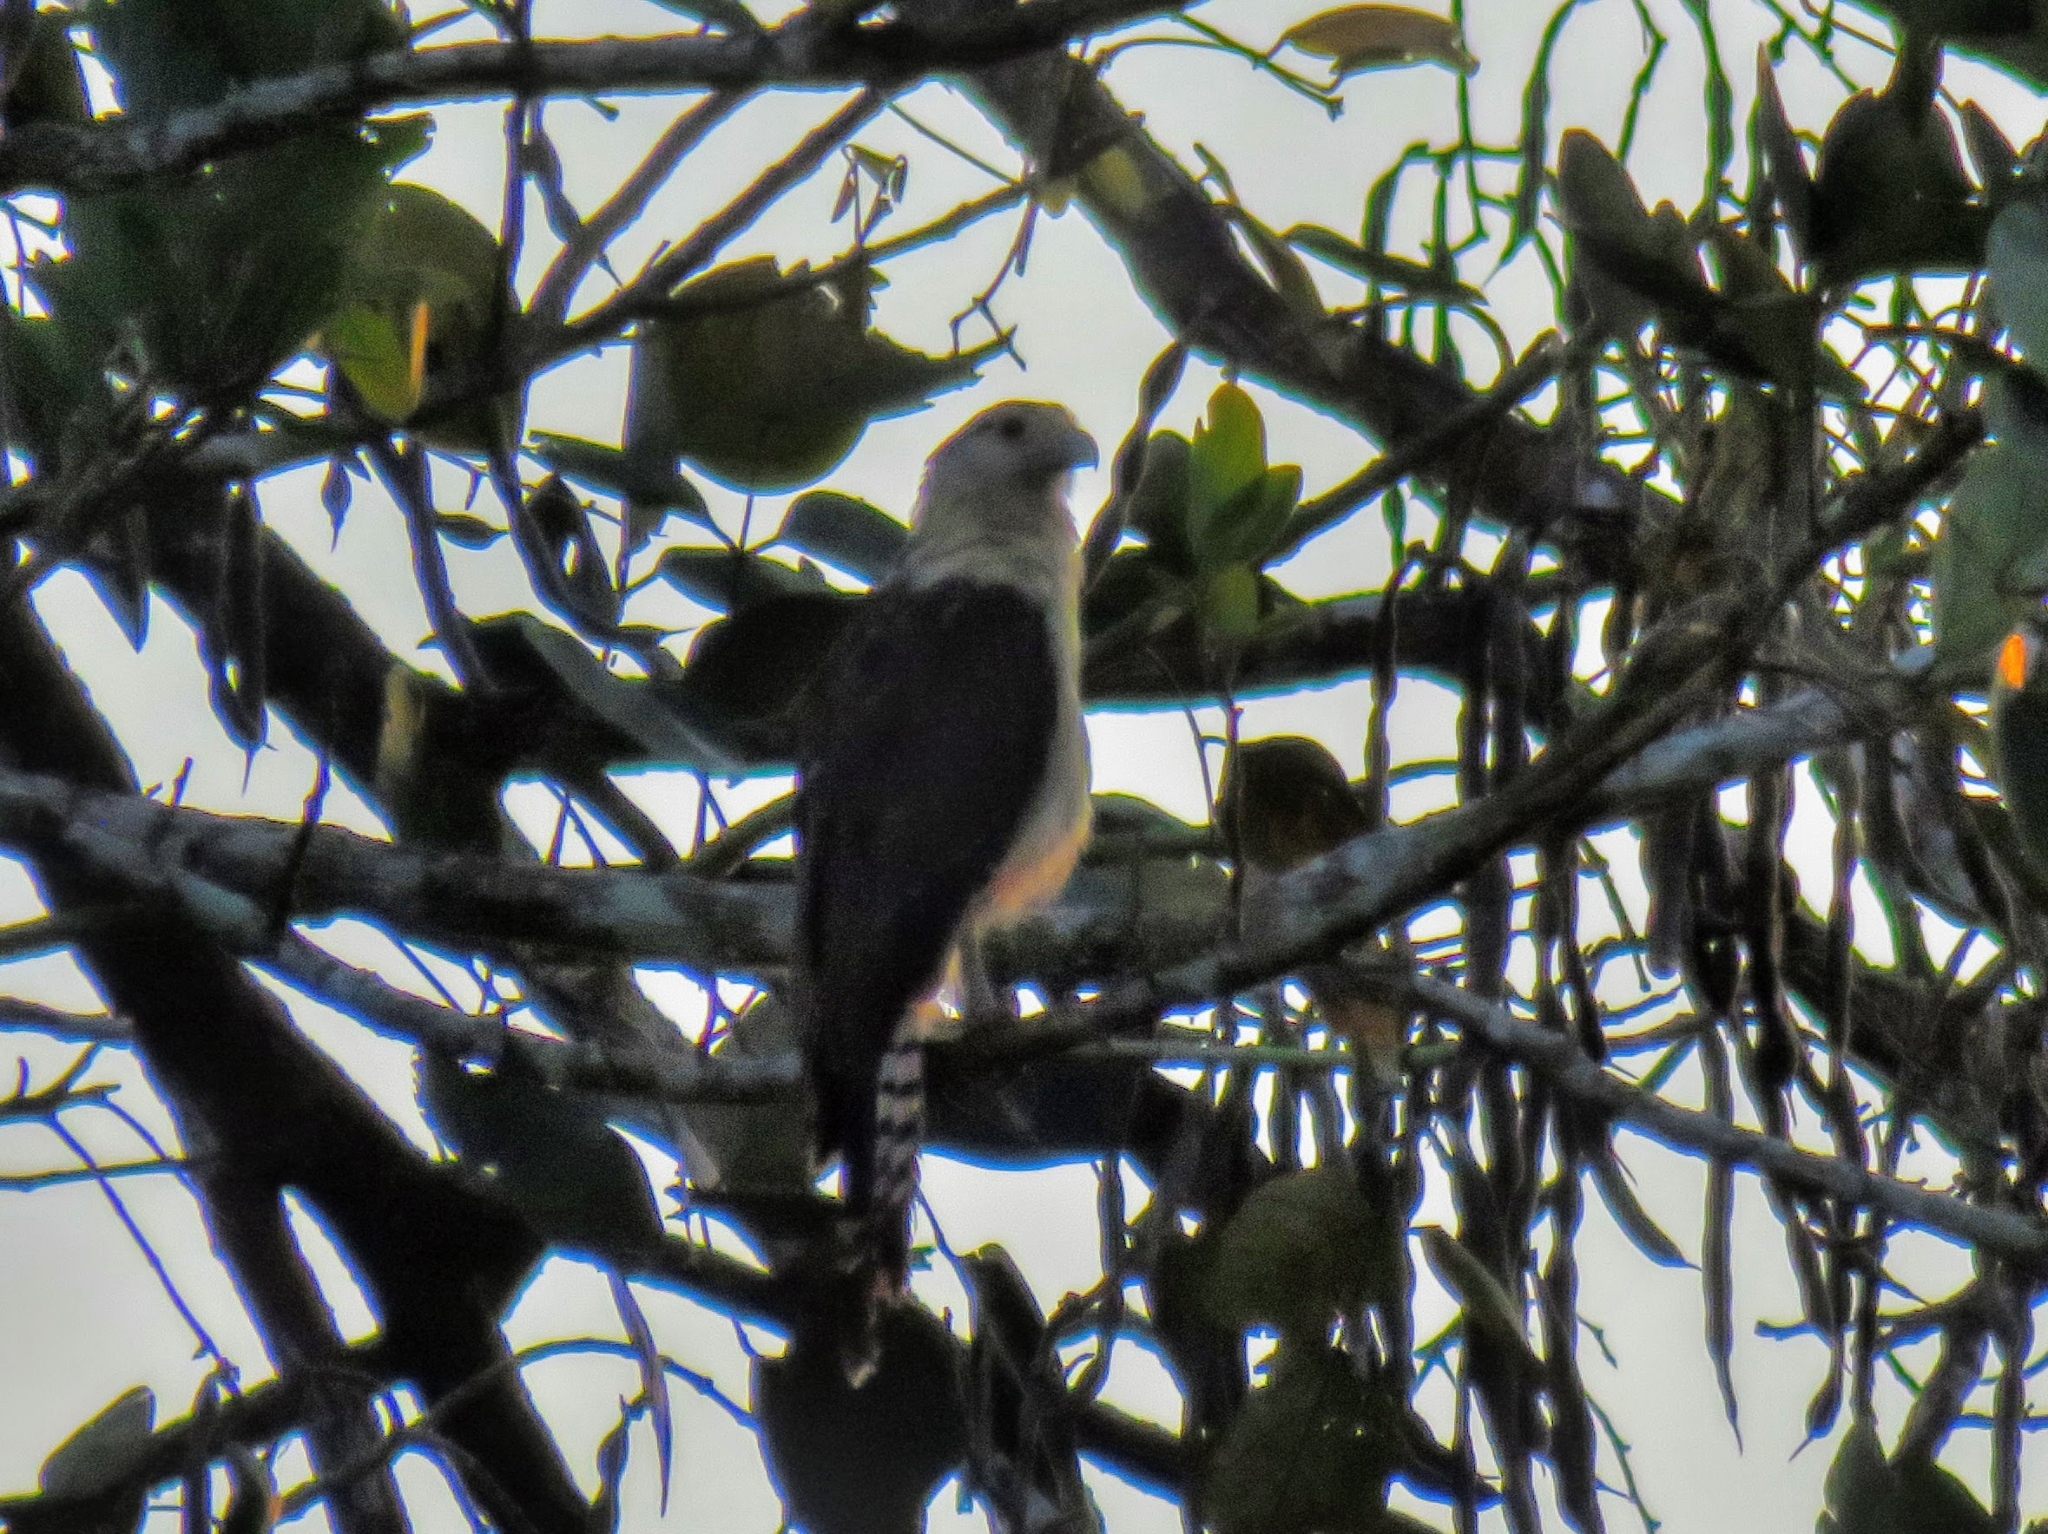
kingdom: Animalia
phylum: Chordata
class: Aves
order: Falconiformes
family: Falconidae
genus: Daptrius
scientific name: Daptrius
